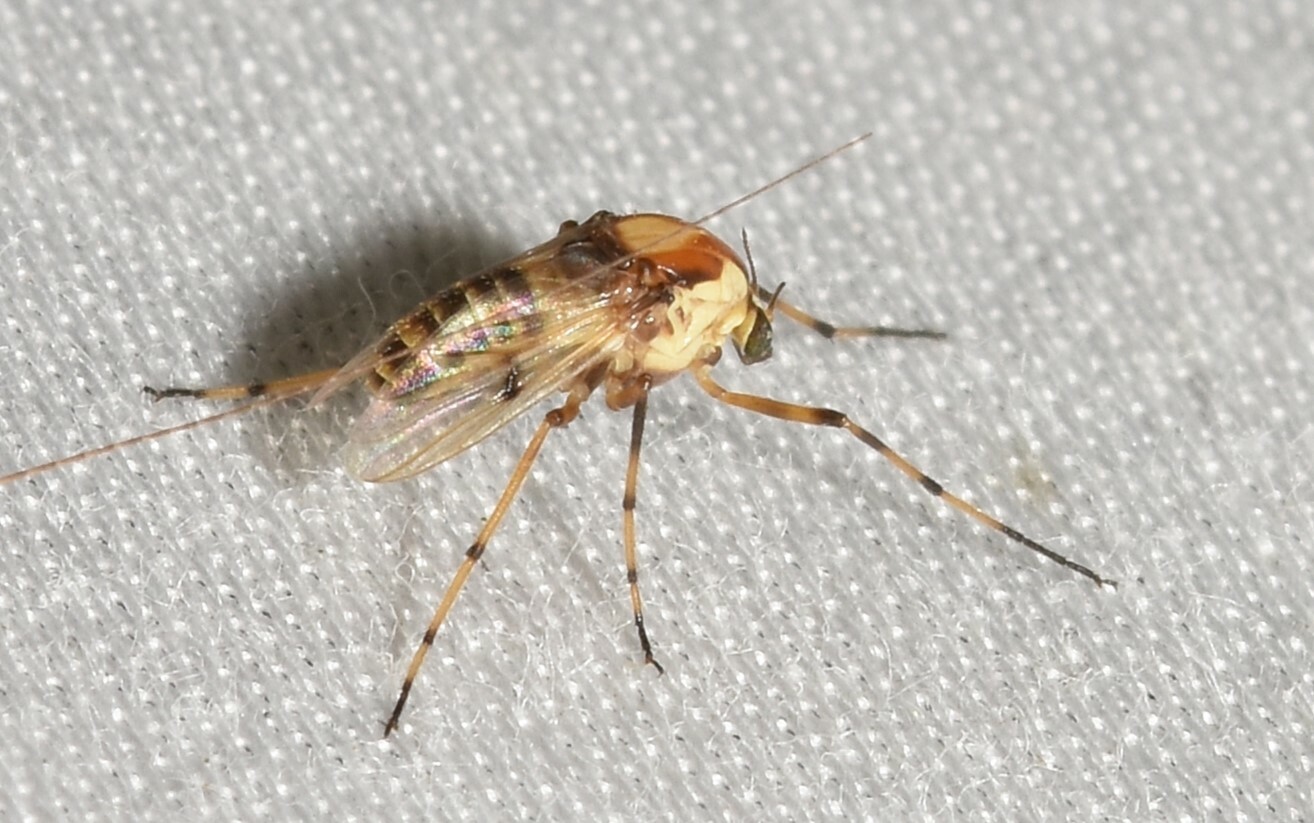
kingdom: Animalia
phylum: Arthropoda
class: Insecta
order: Diptera
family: Chironomidae
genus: Coelotanypus
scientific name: Coelotanypus tricolor
